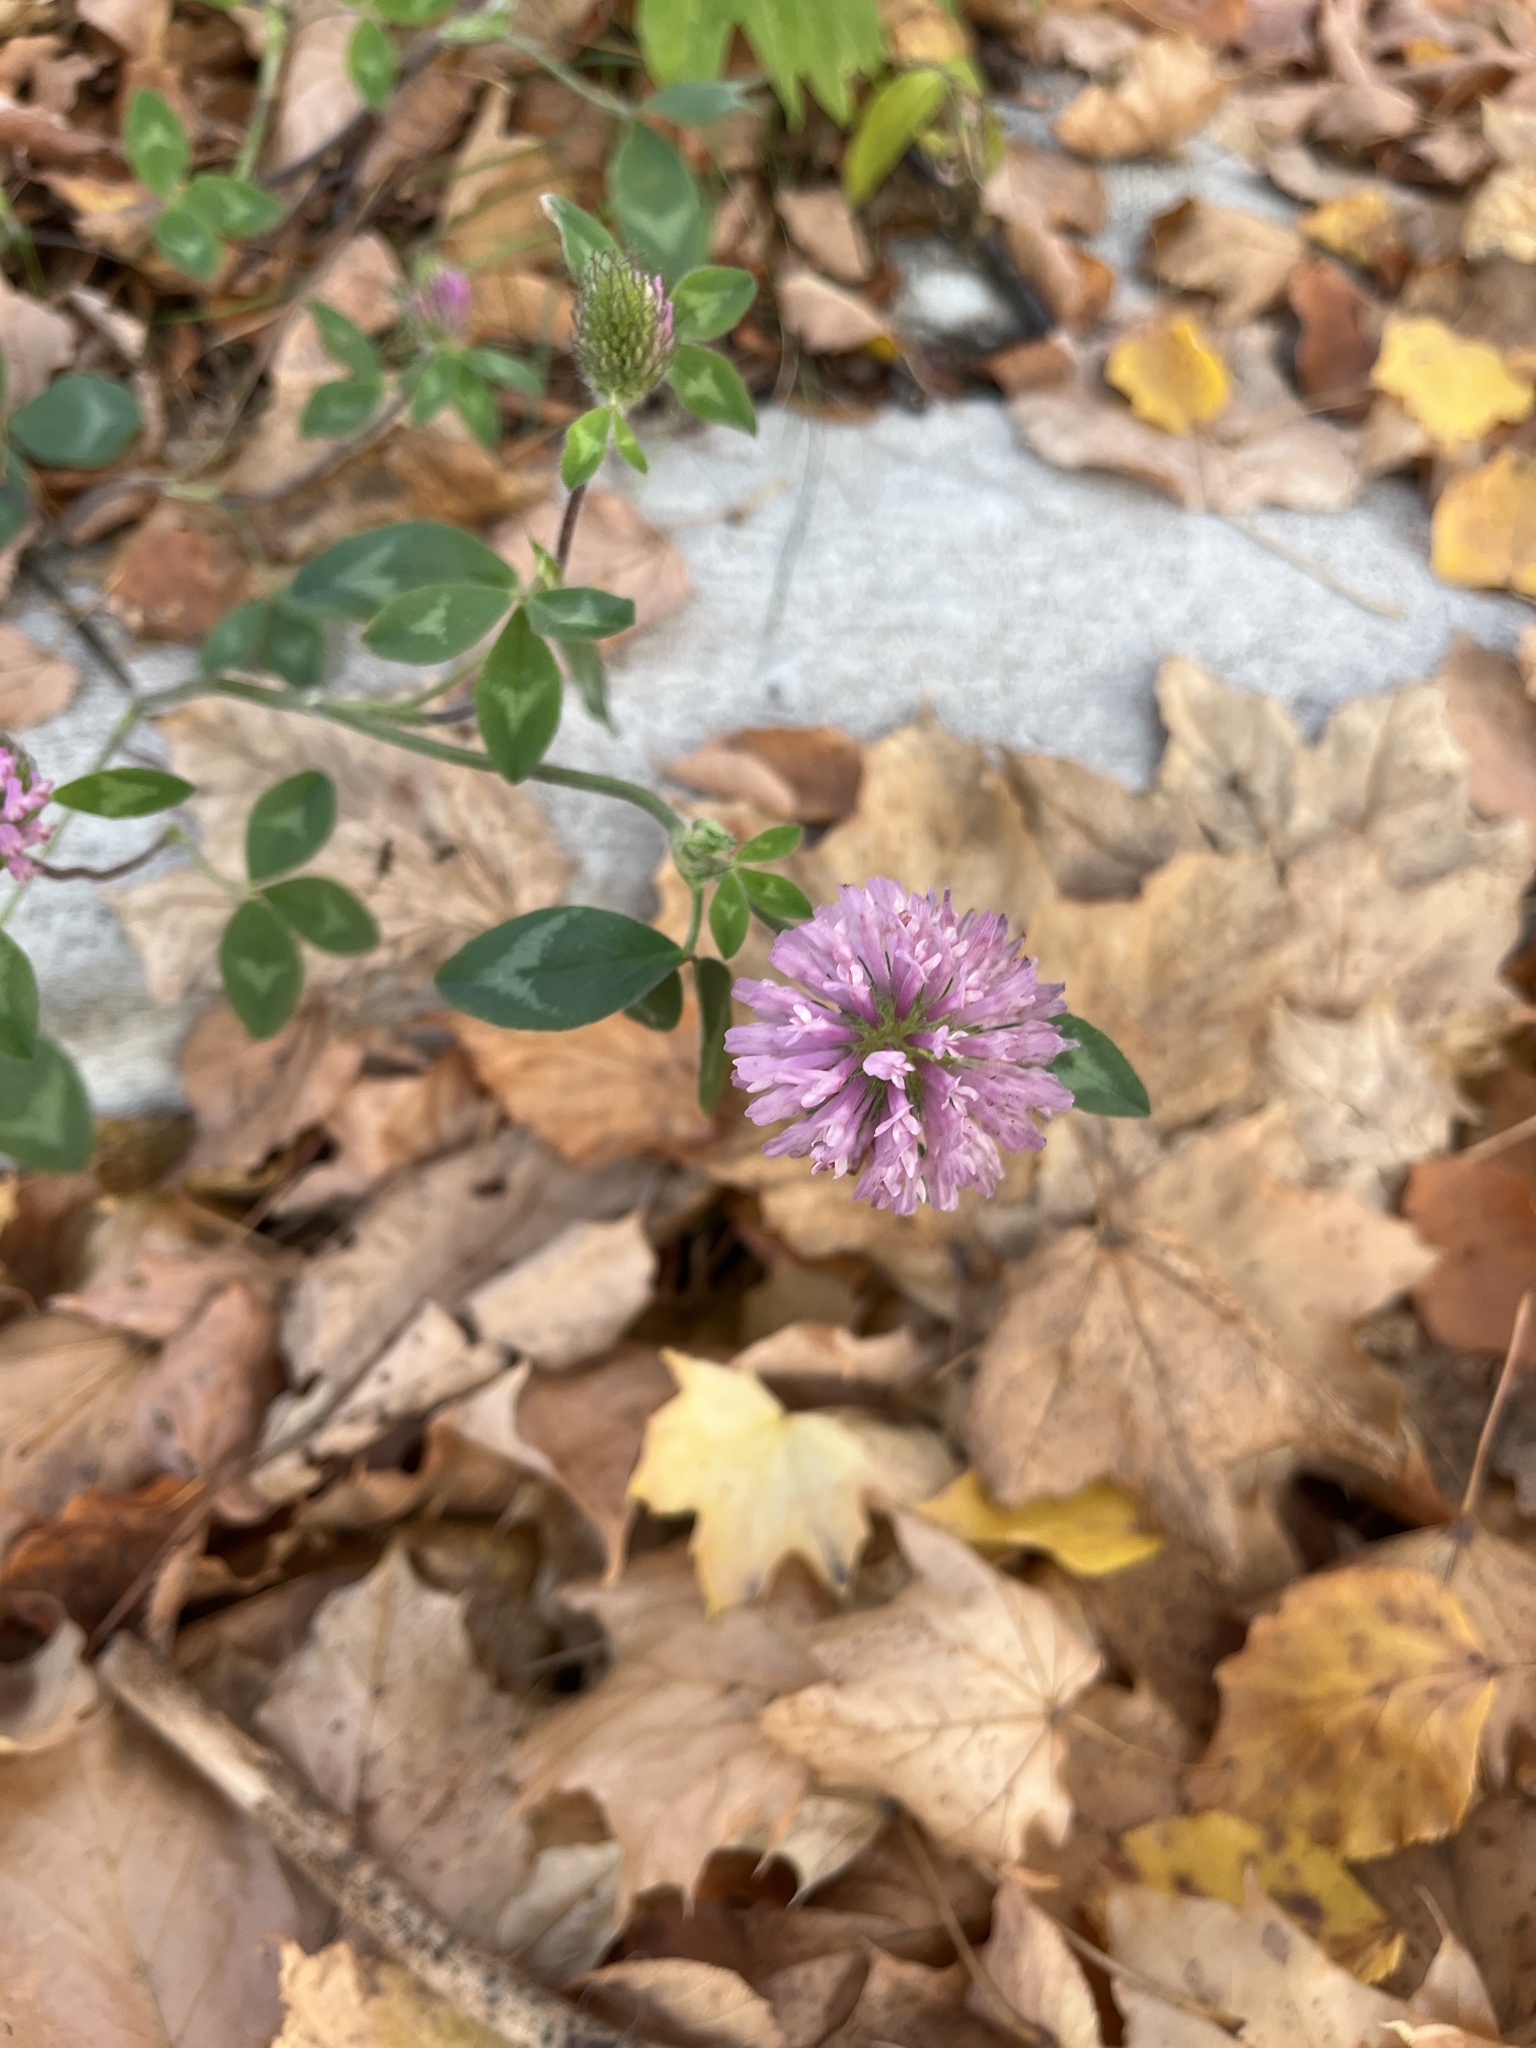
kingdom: Plantae
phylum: Tracheophyta
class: Magnoliopsida
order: Fabales
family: Fabaceae
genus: Trifolium
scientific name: Trifolium pratense
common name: Red clover
